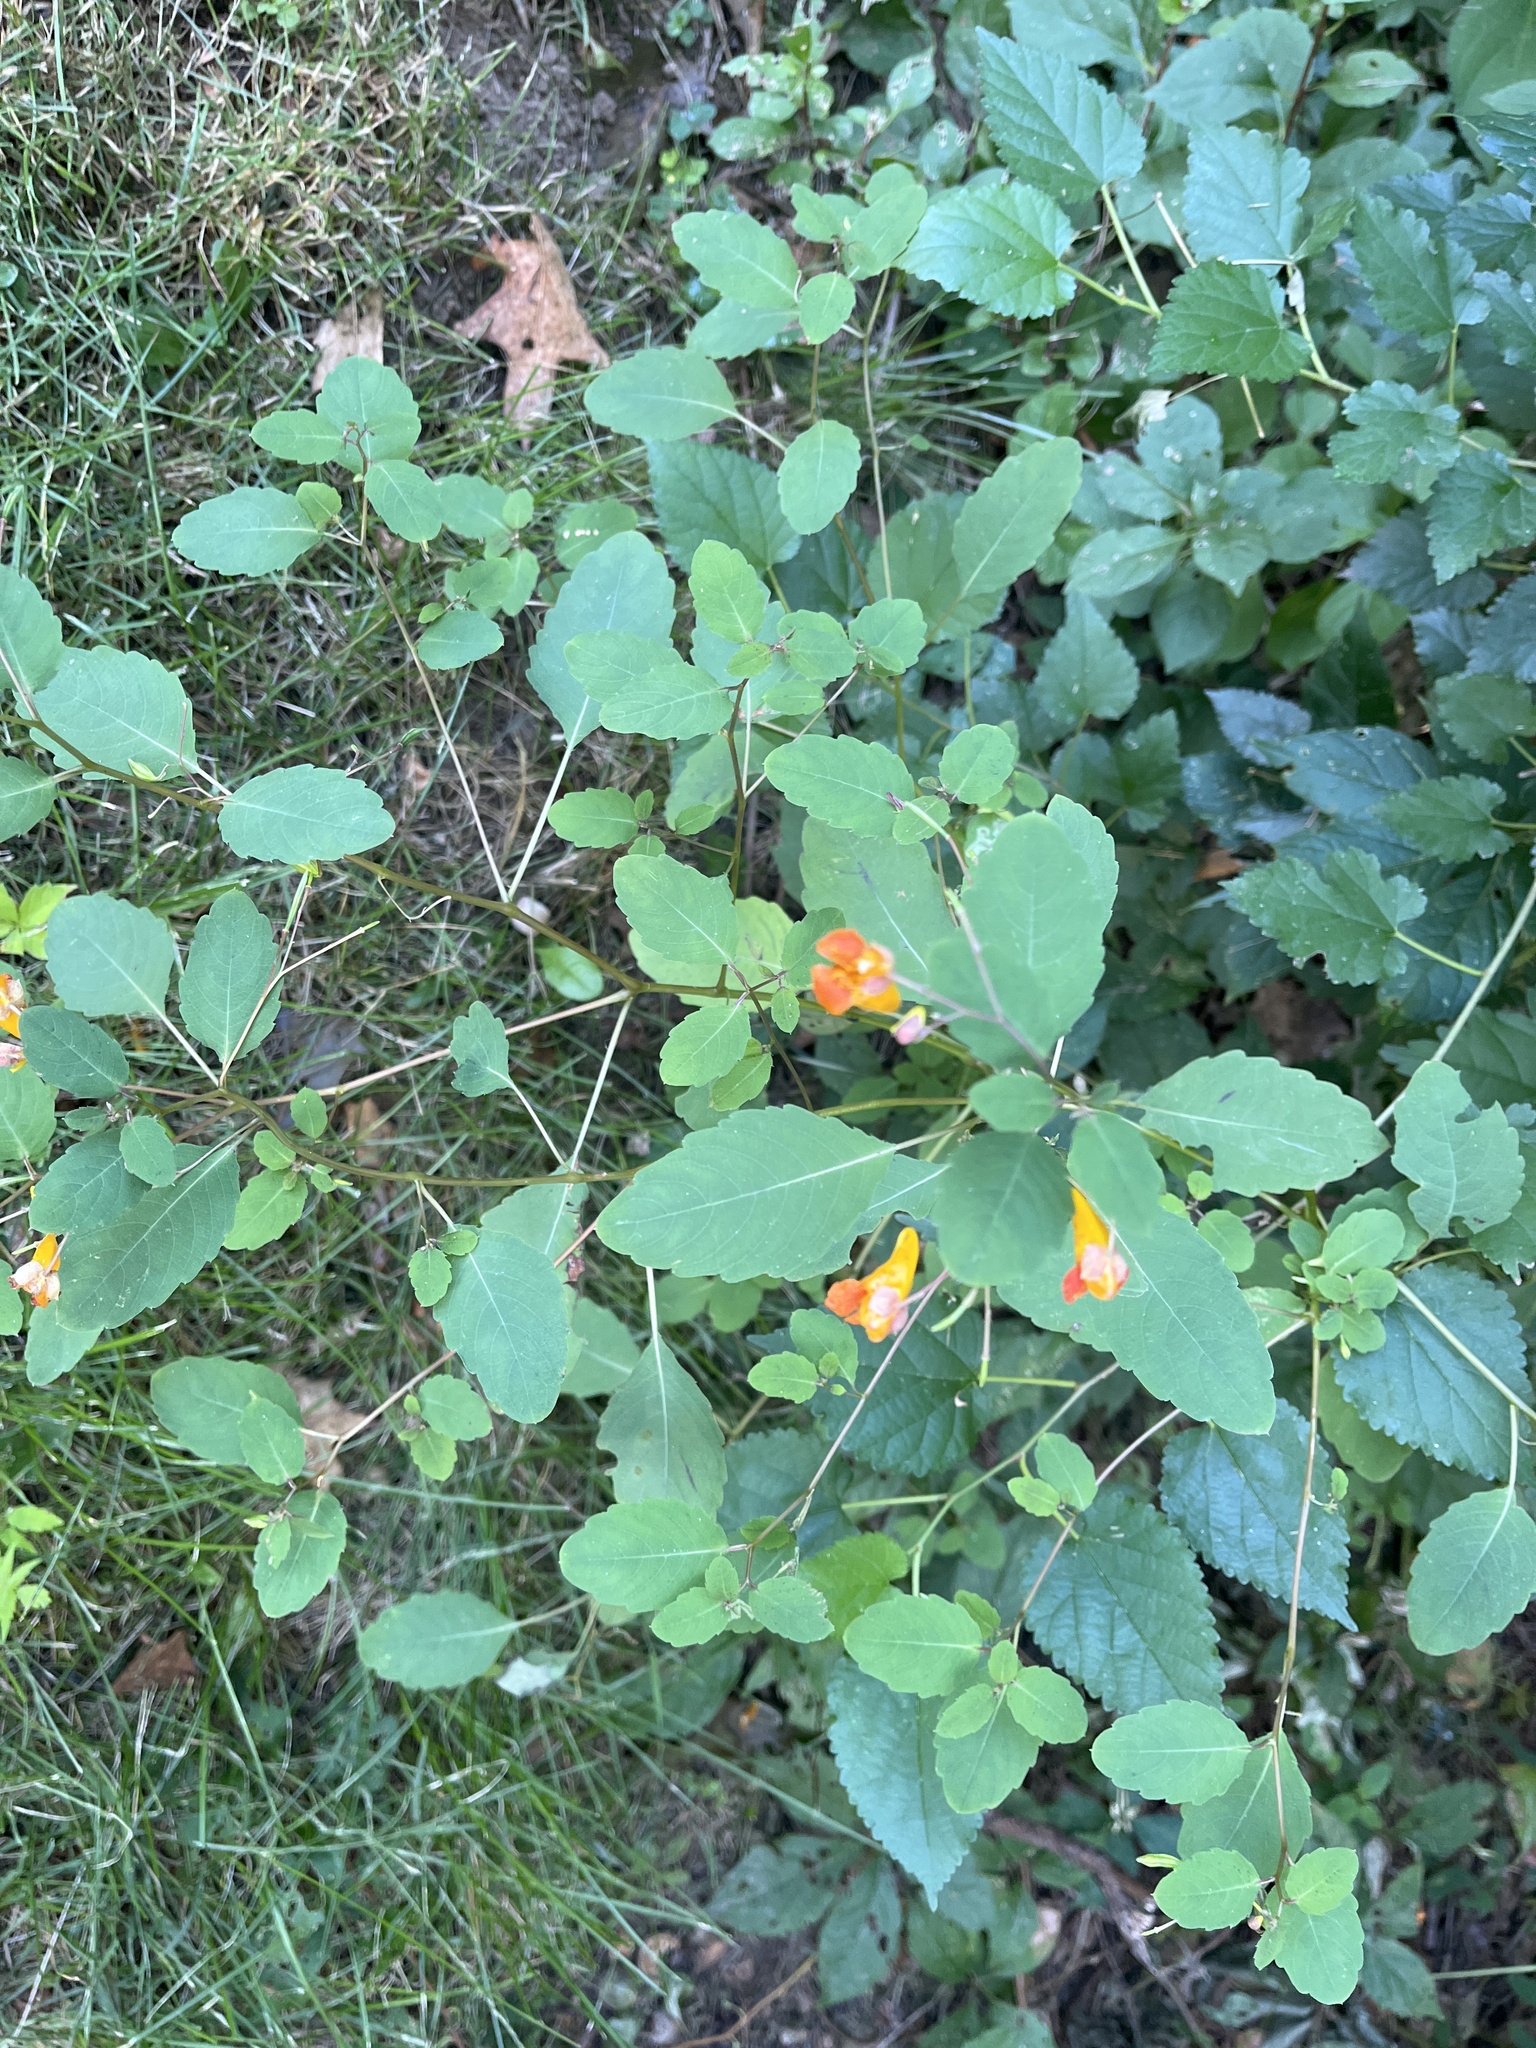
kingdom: Plantae
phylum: Tracheophyta
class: Magnoliopsida
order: Ericales
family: Balsaminaceae
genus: Impatiens
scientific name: Impatiens capensis
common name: Orange balsam
